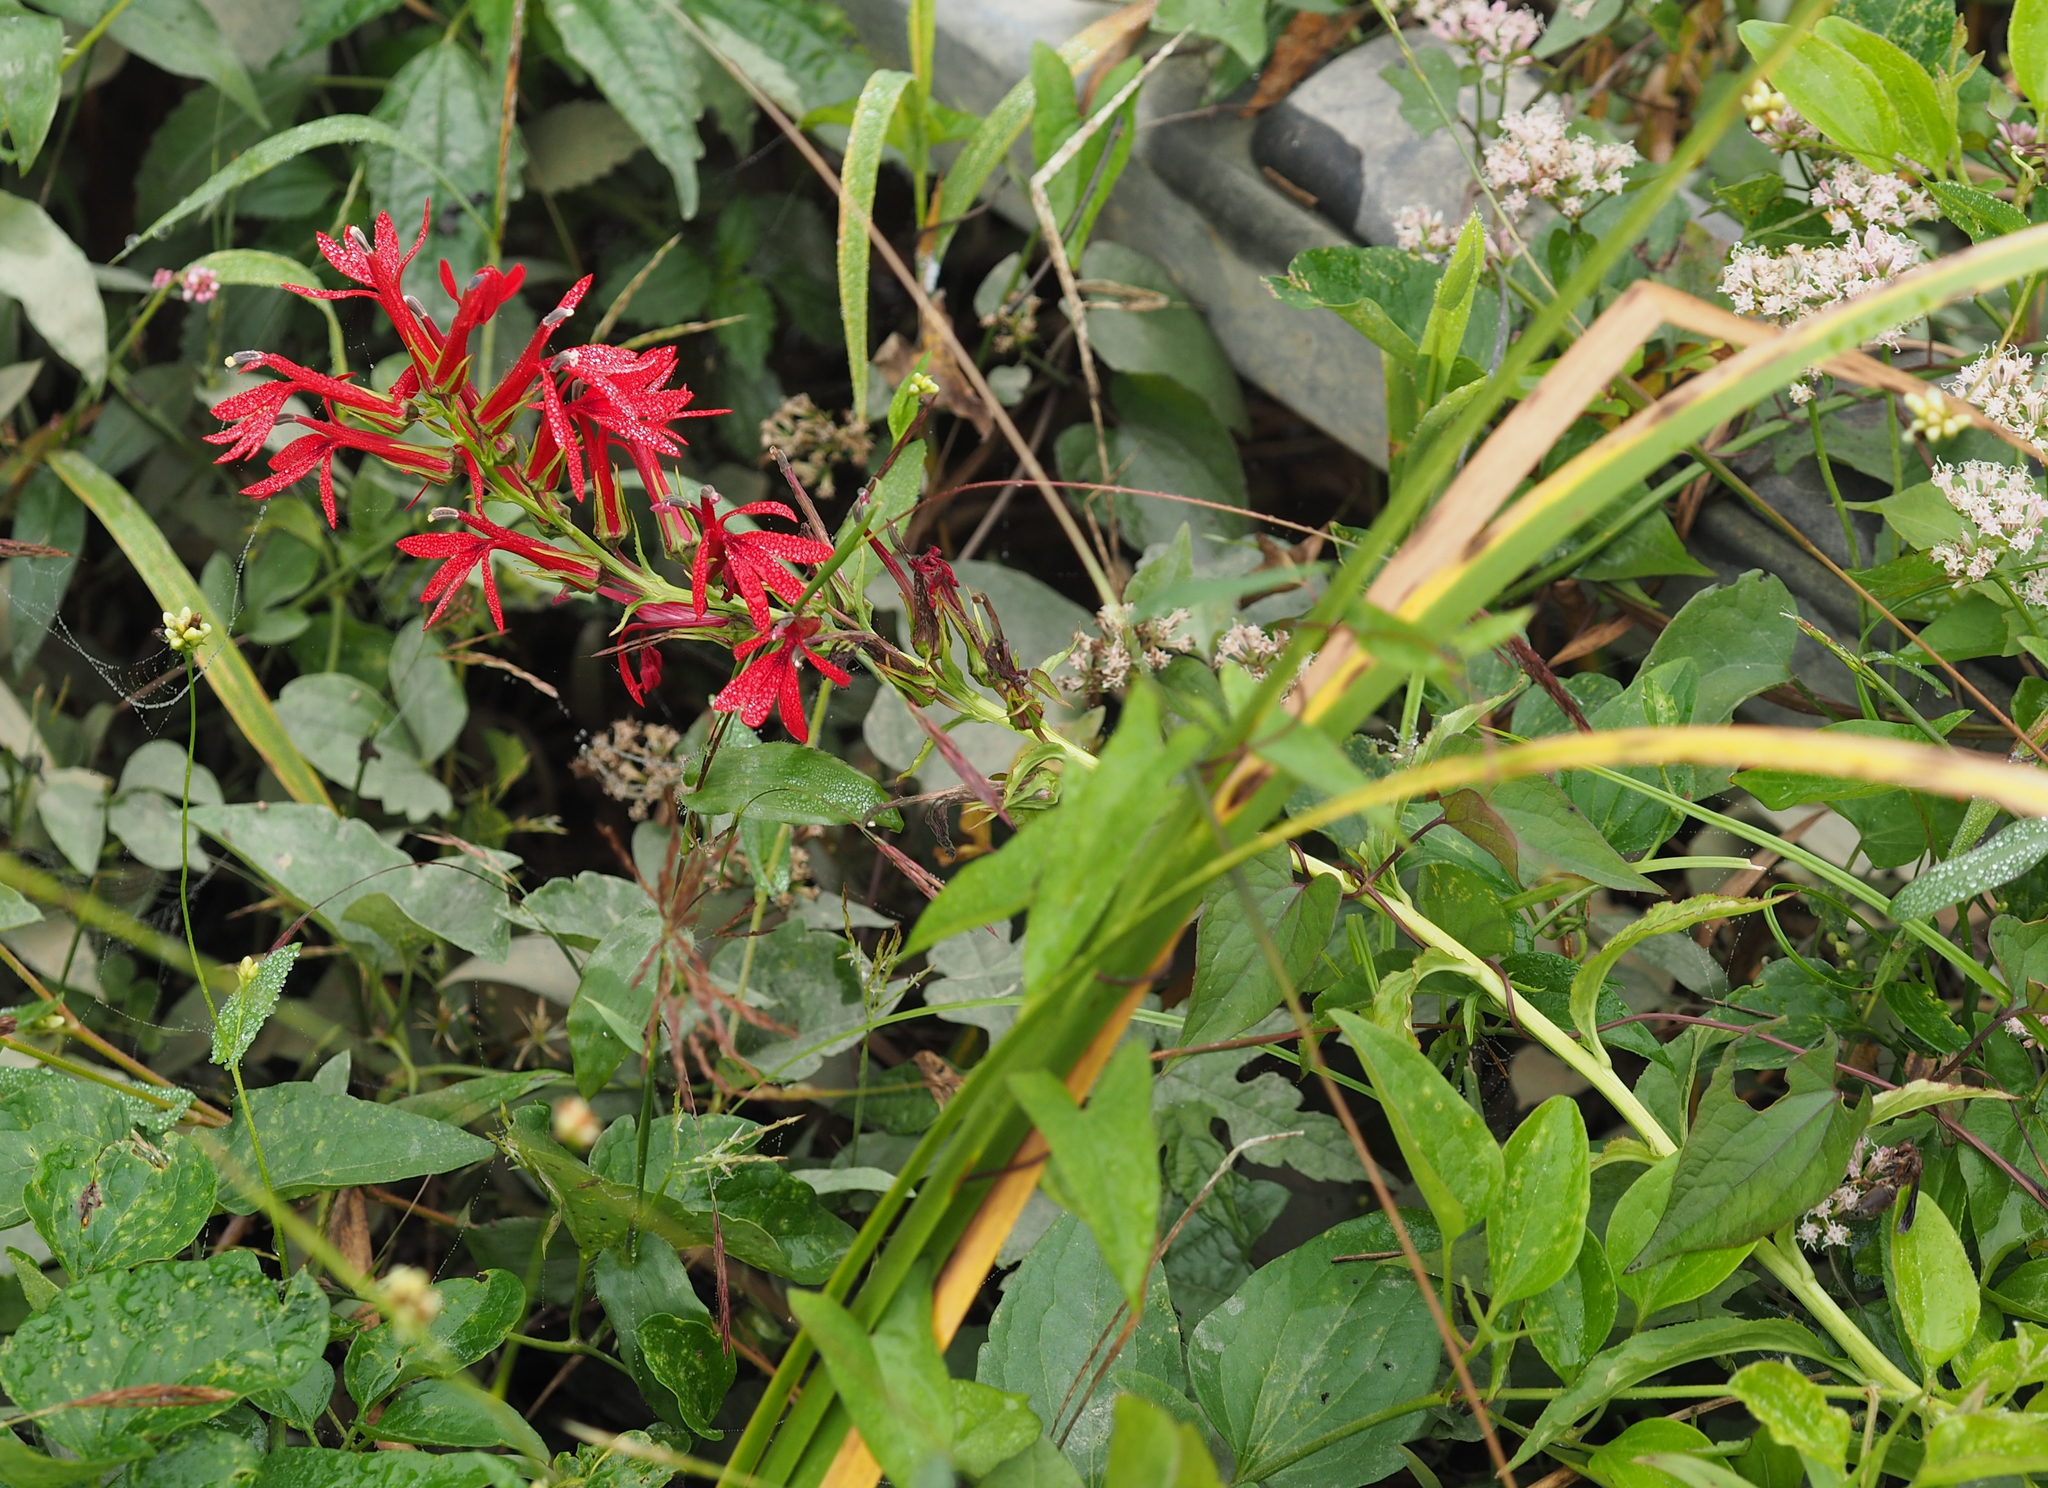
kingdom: Plantae
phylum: Tracheophyta
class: Magnoliopsida
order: Asterales
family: Campanulaceae
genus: Lobelia
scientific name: Lobelia cardinalis
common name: Cardinal flower
